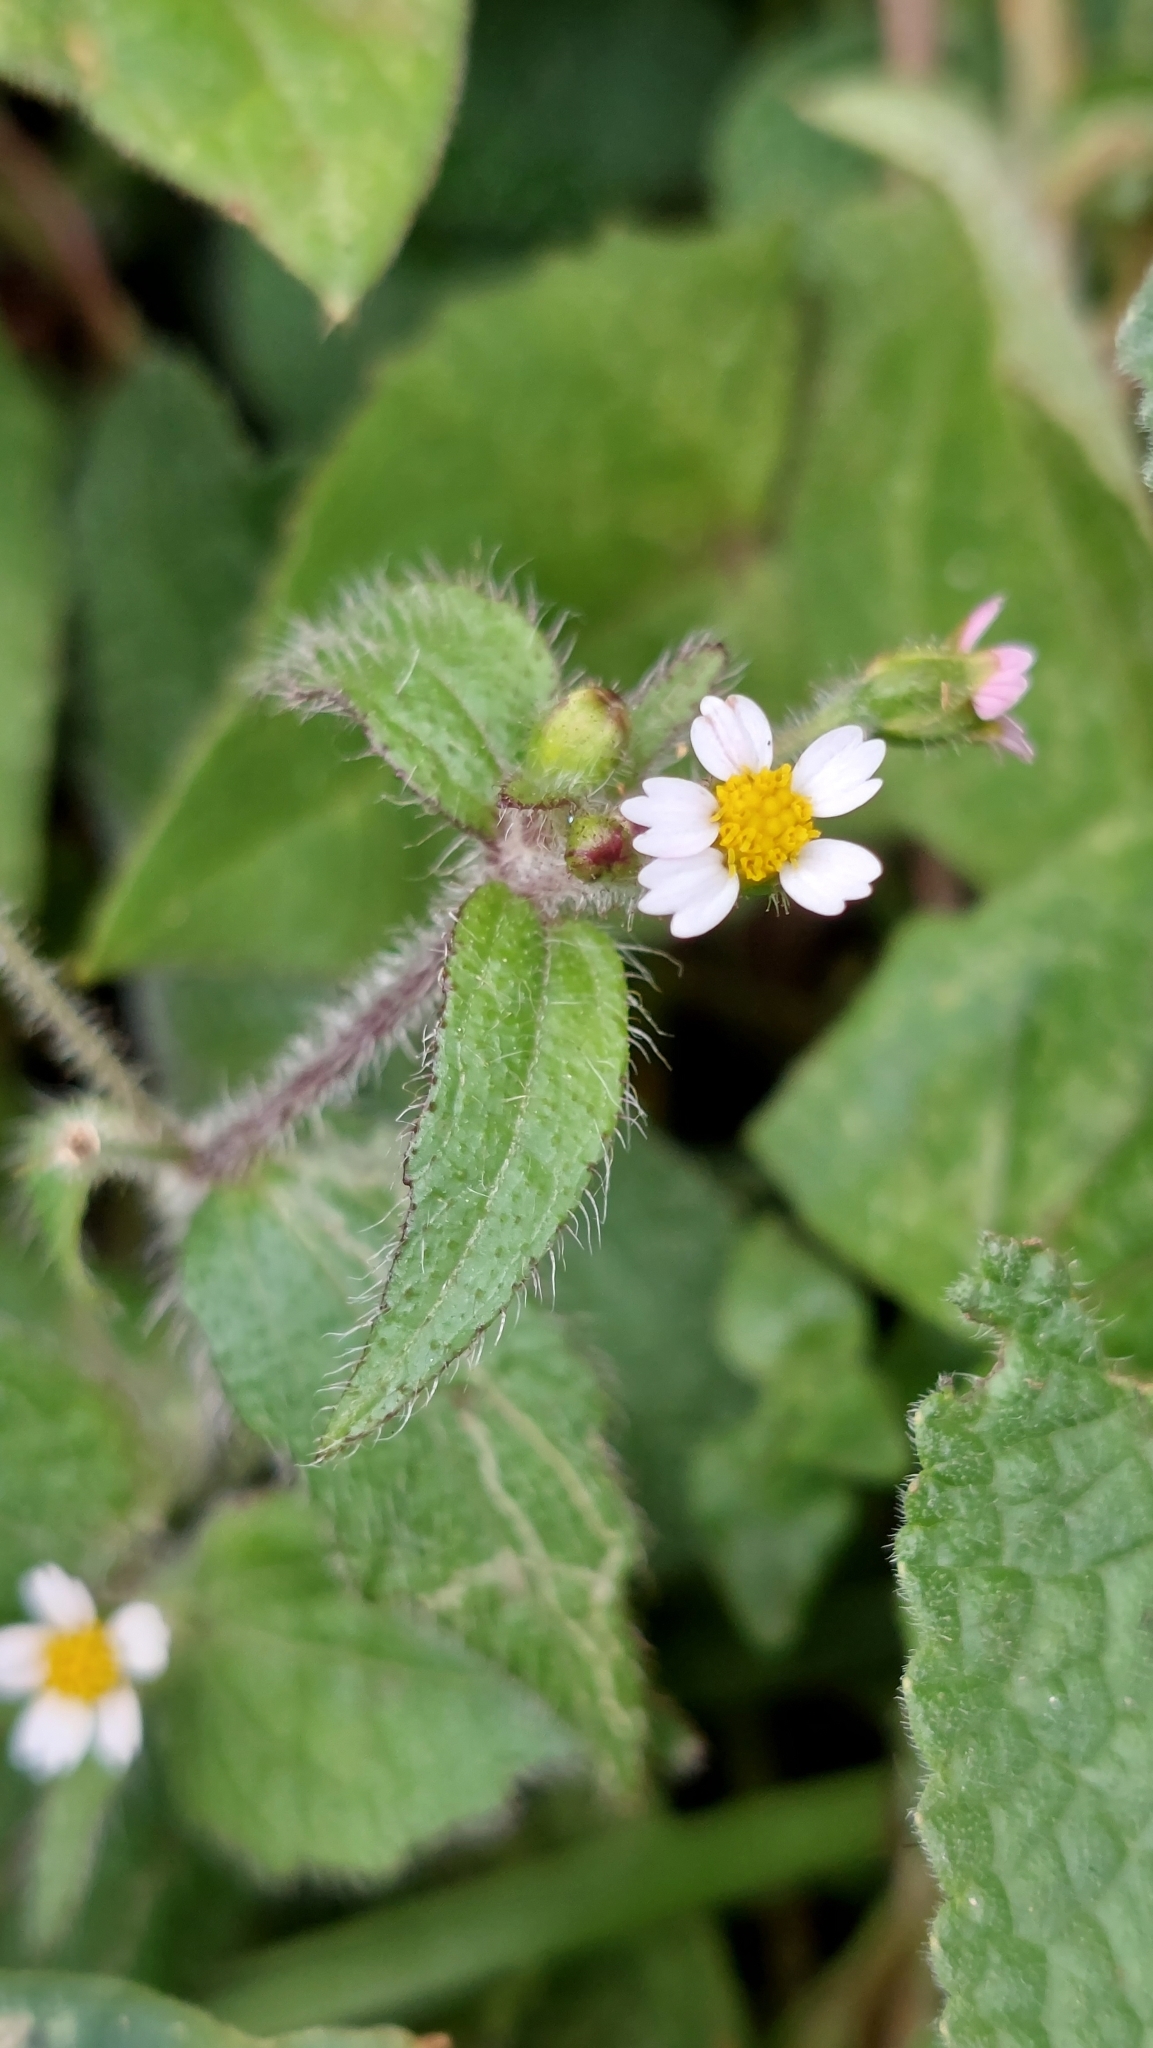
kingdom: Plantae
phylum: Tracheophyta
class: Magnoliopsida
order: Asterales
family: Asteraceae
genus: Galinsoga
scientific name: Galinsoga quadriradiata
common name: Shaggy soldier
